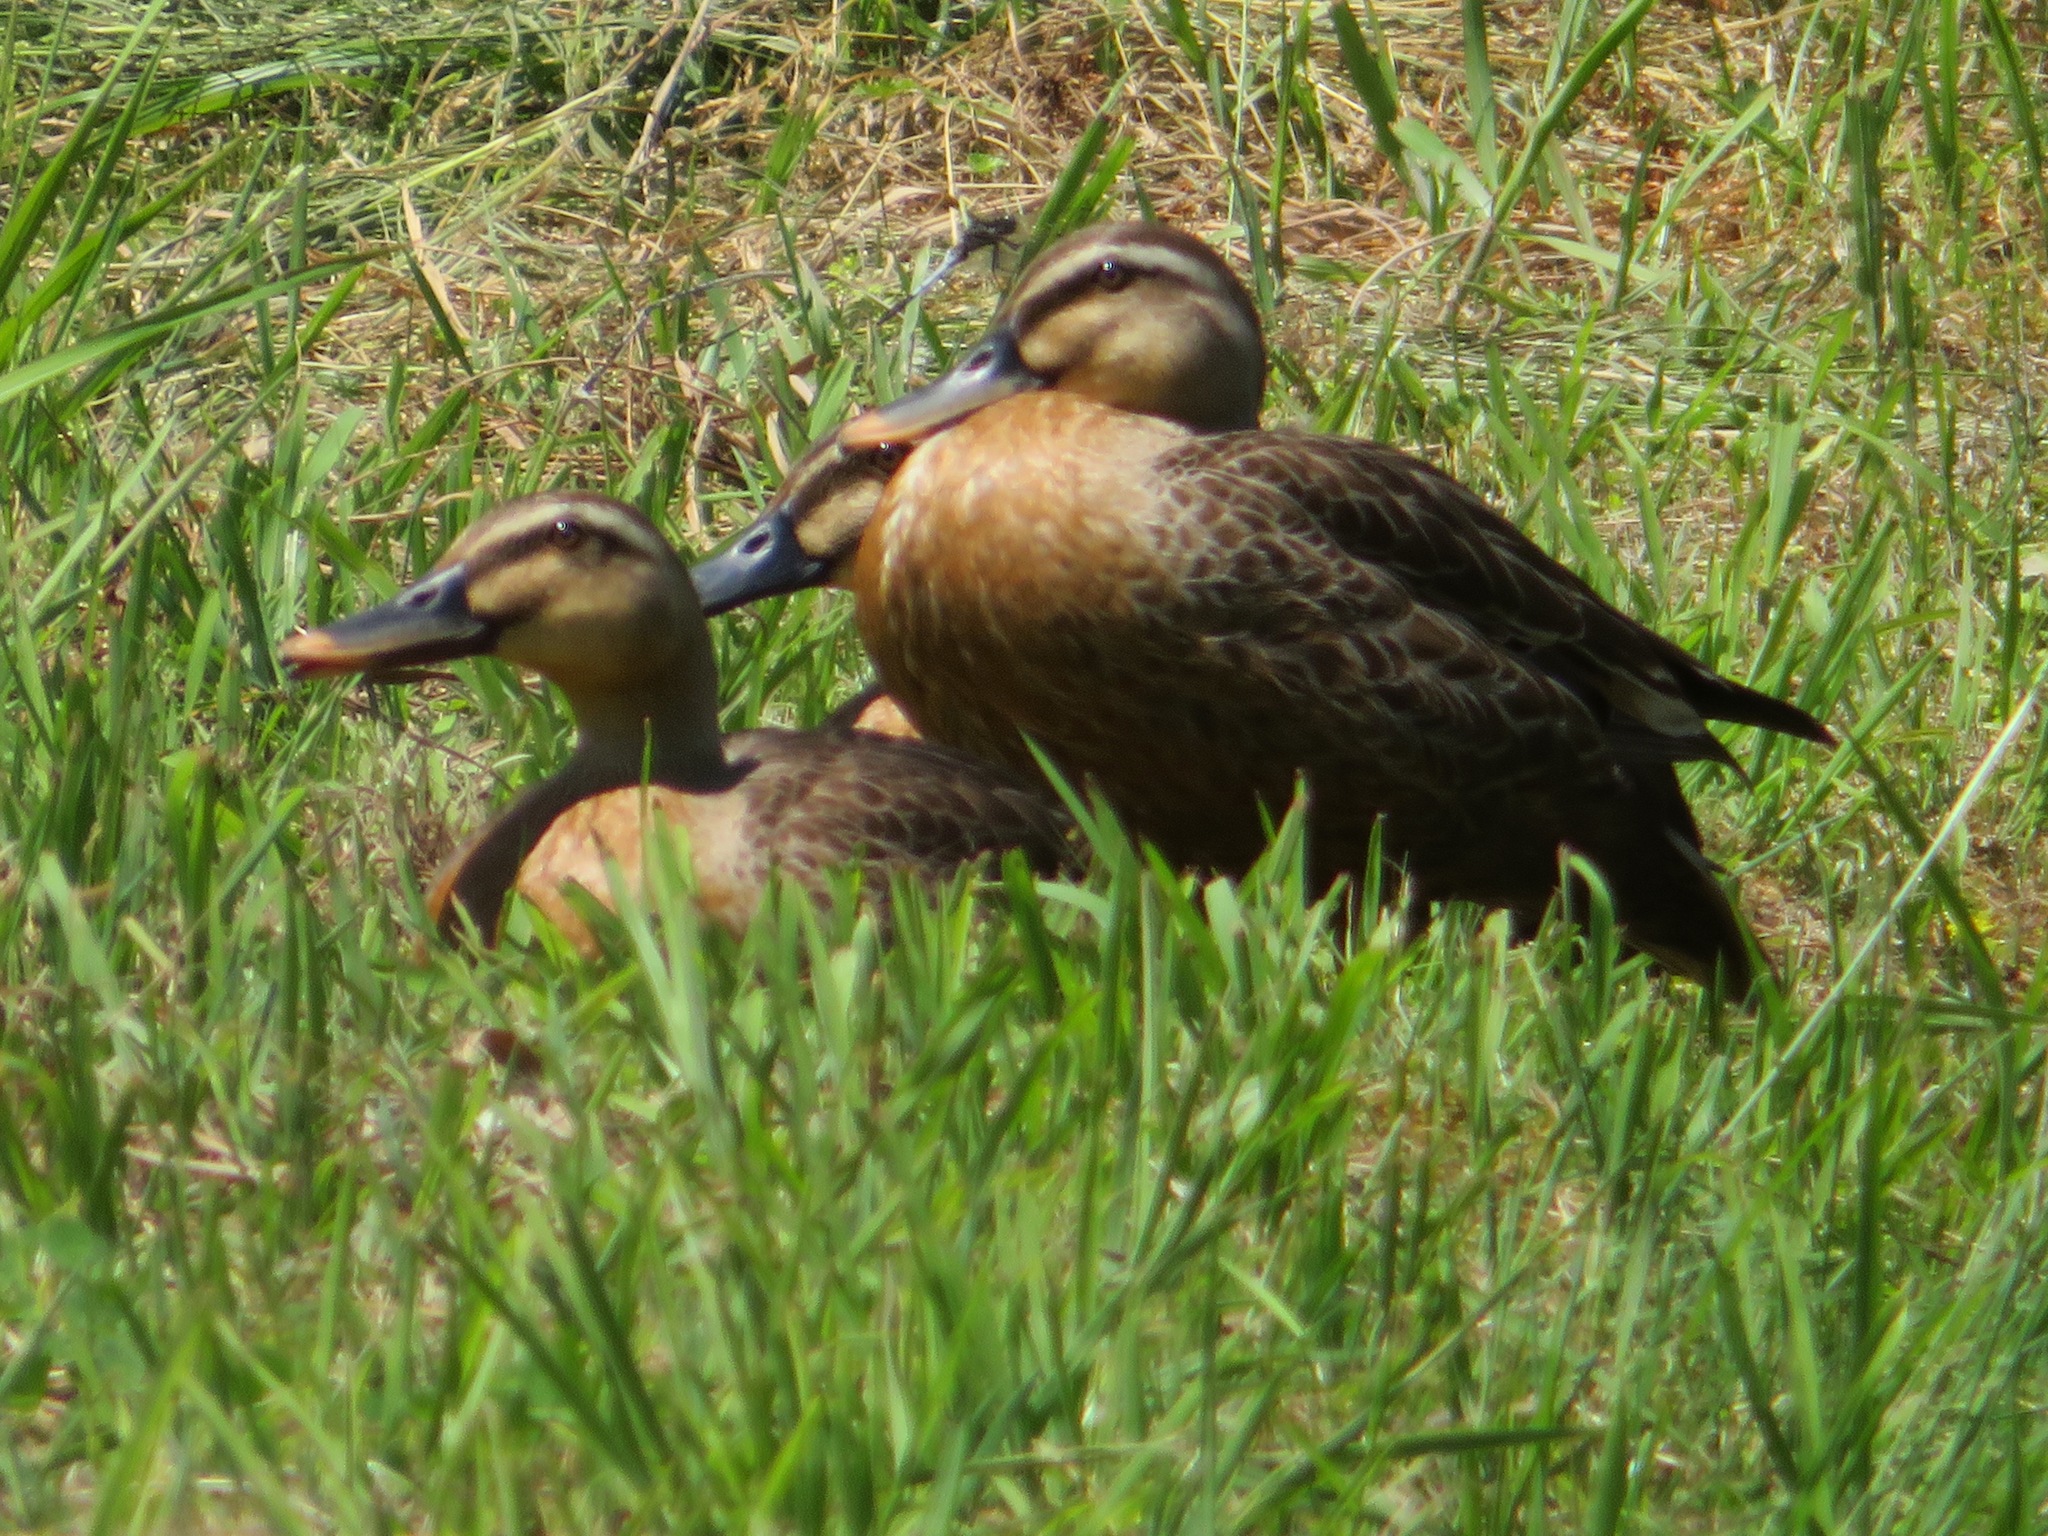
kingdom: Animalia
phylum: Chordata
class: Aves
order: Anseriformes
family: Anatidae
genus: Anas
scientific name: Anas zonorhyncha
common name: Eastern spot-billed duck
